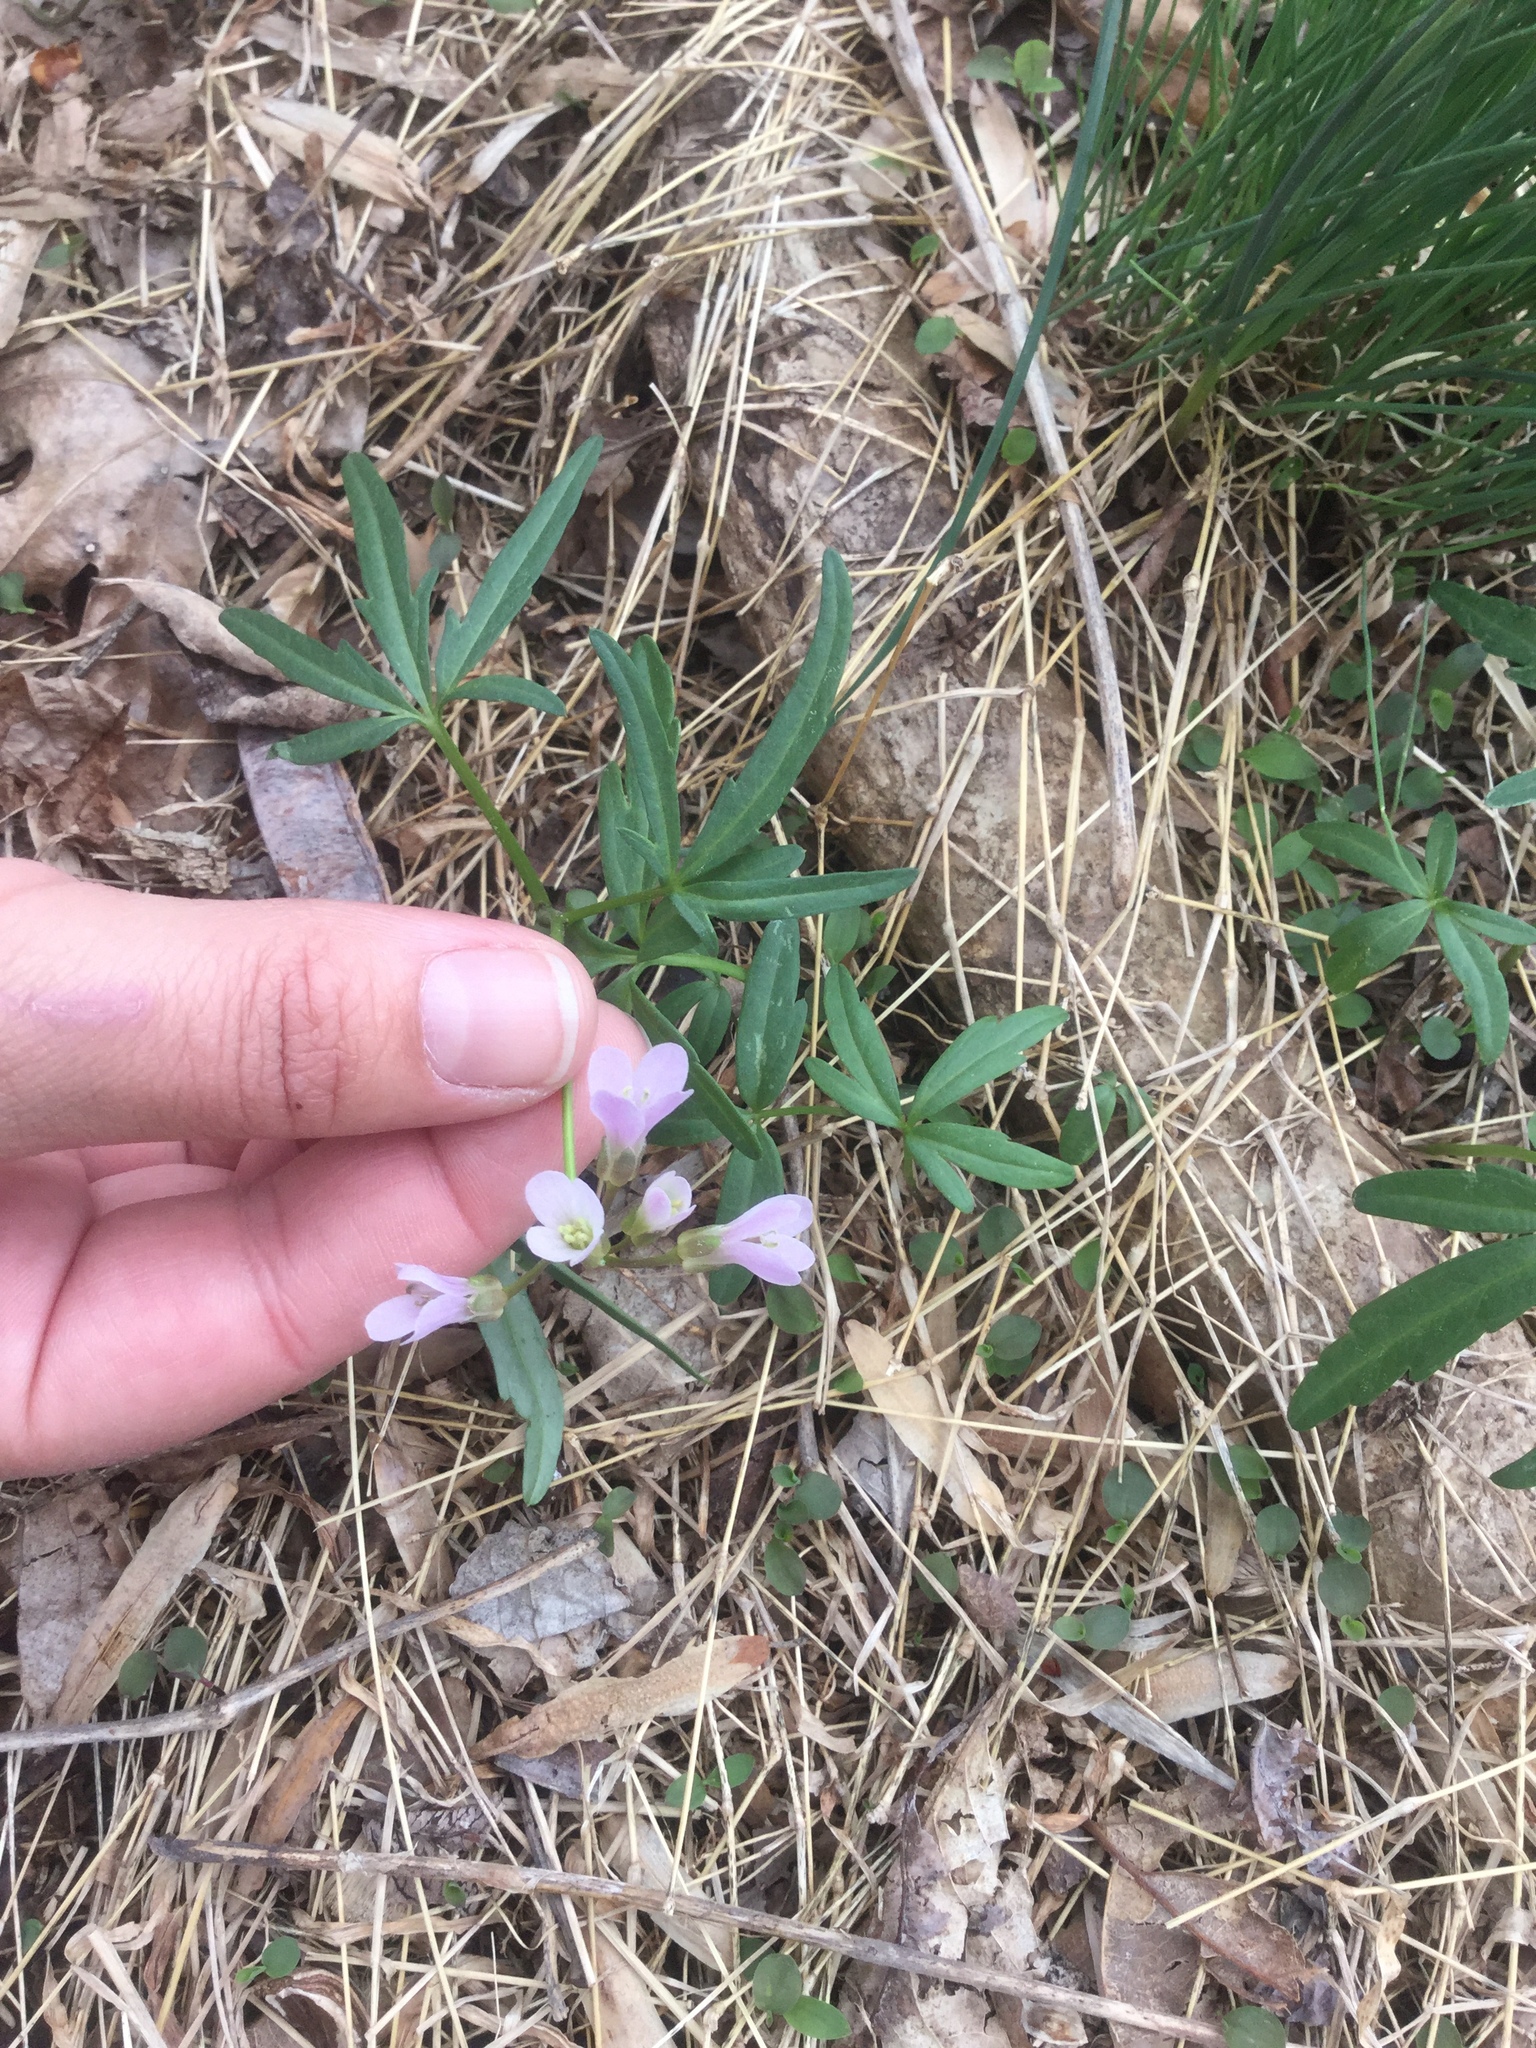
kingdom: Plantae
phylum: Tracheophyta
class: Magnoliopsida
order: Brassicales
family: Brassicaceae
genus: Cardamine
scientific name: Cardamine concatenata
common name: Cut-leaf toothcup
